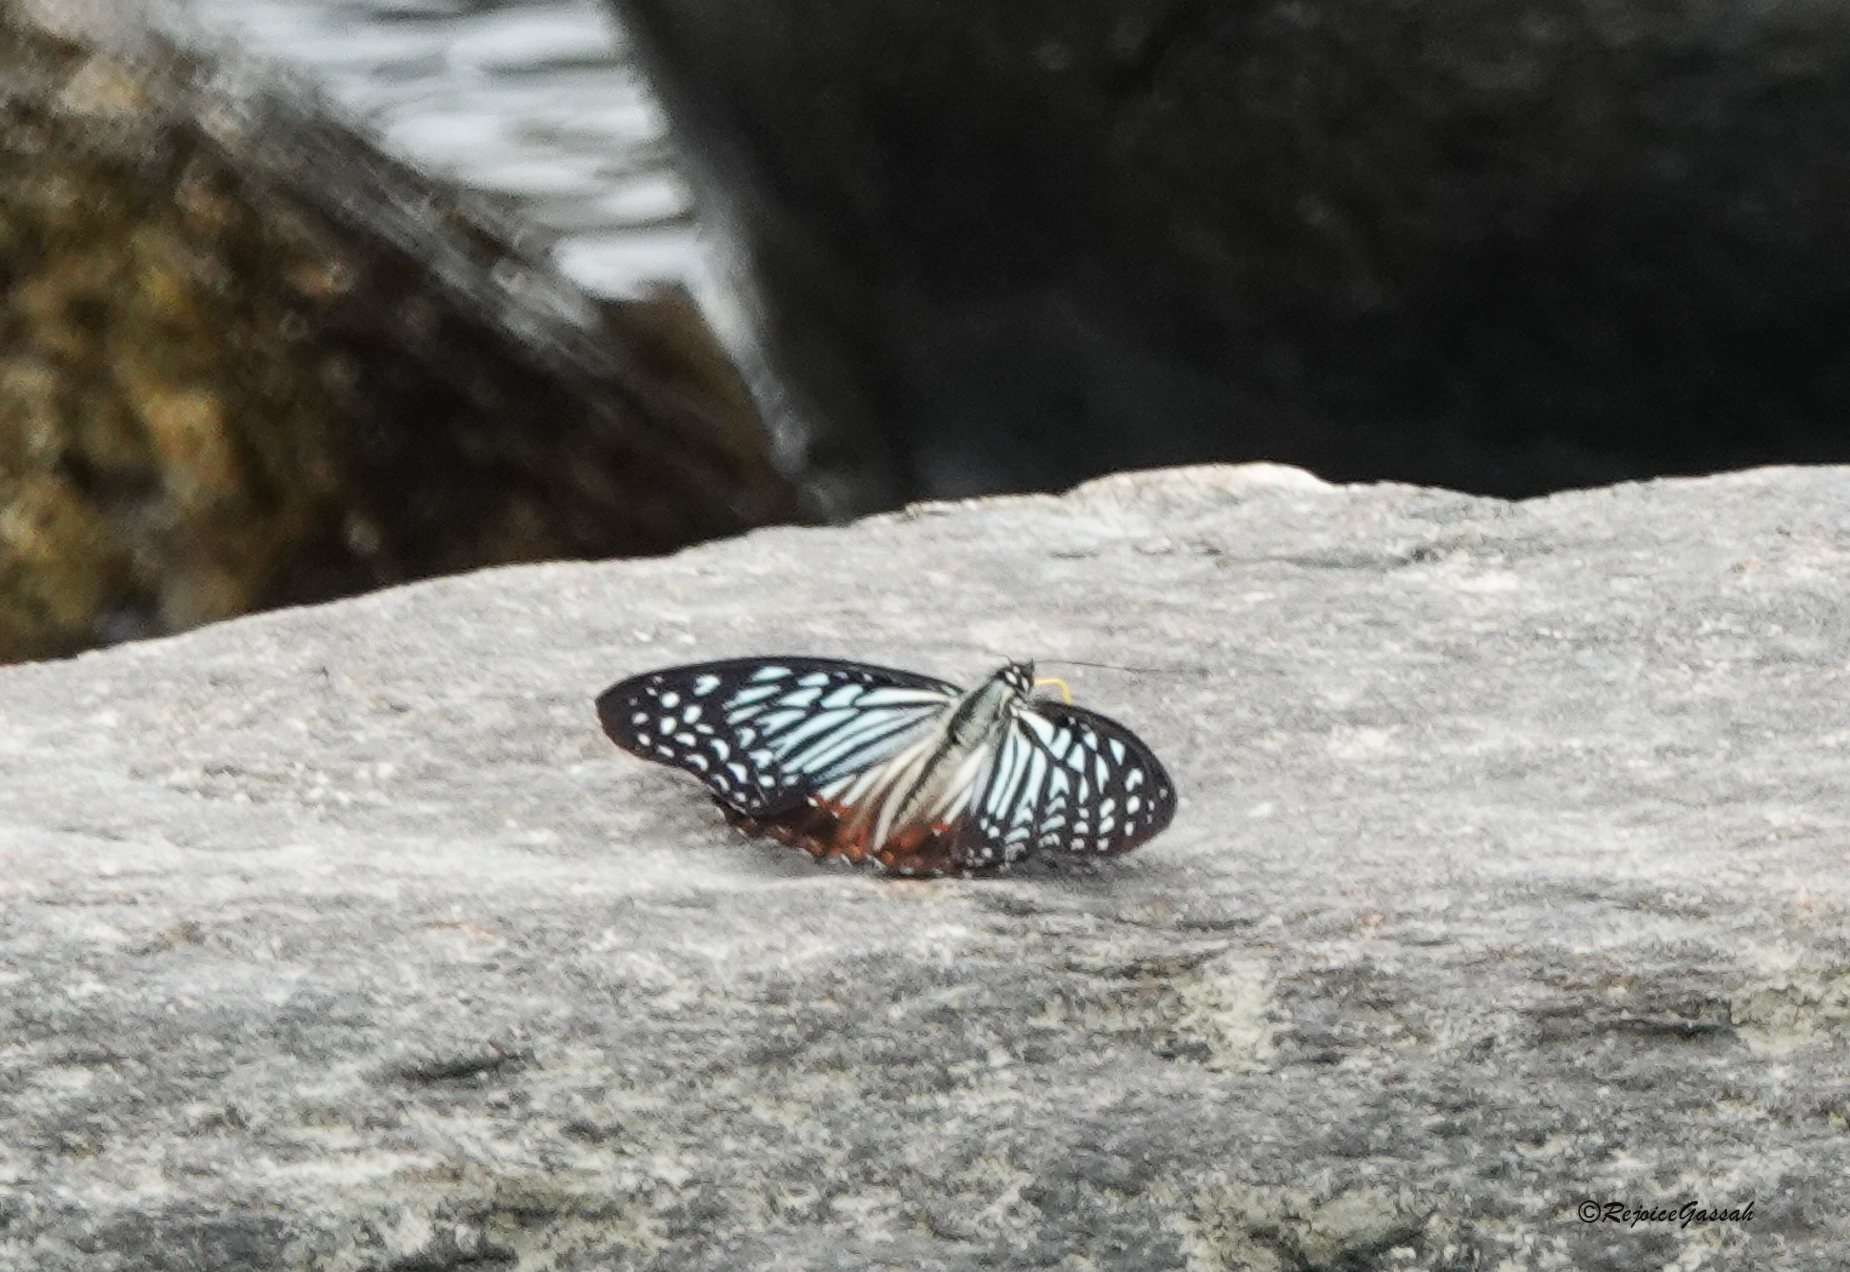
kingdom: Animalia
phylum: Arthropoda
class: Insecta
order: Lepidoptera
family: Nymphalidae
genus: Hestinalis
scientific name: Hestinalis nama
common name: Circe
